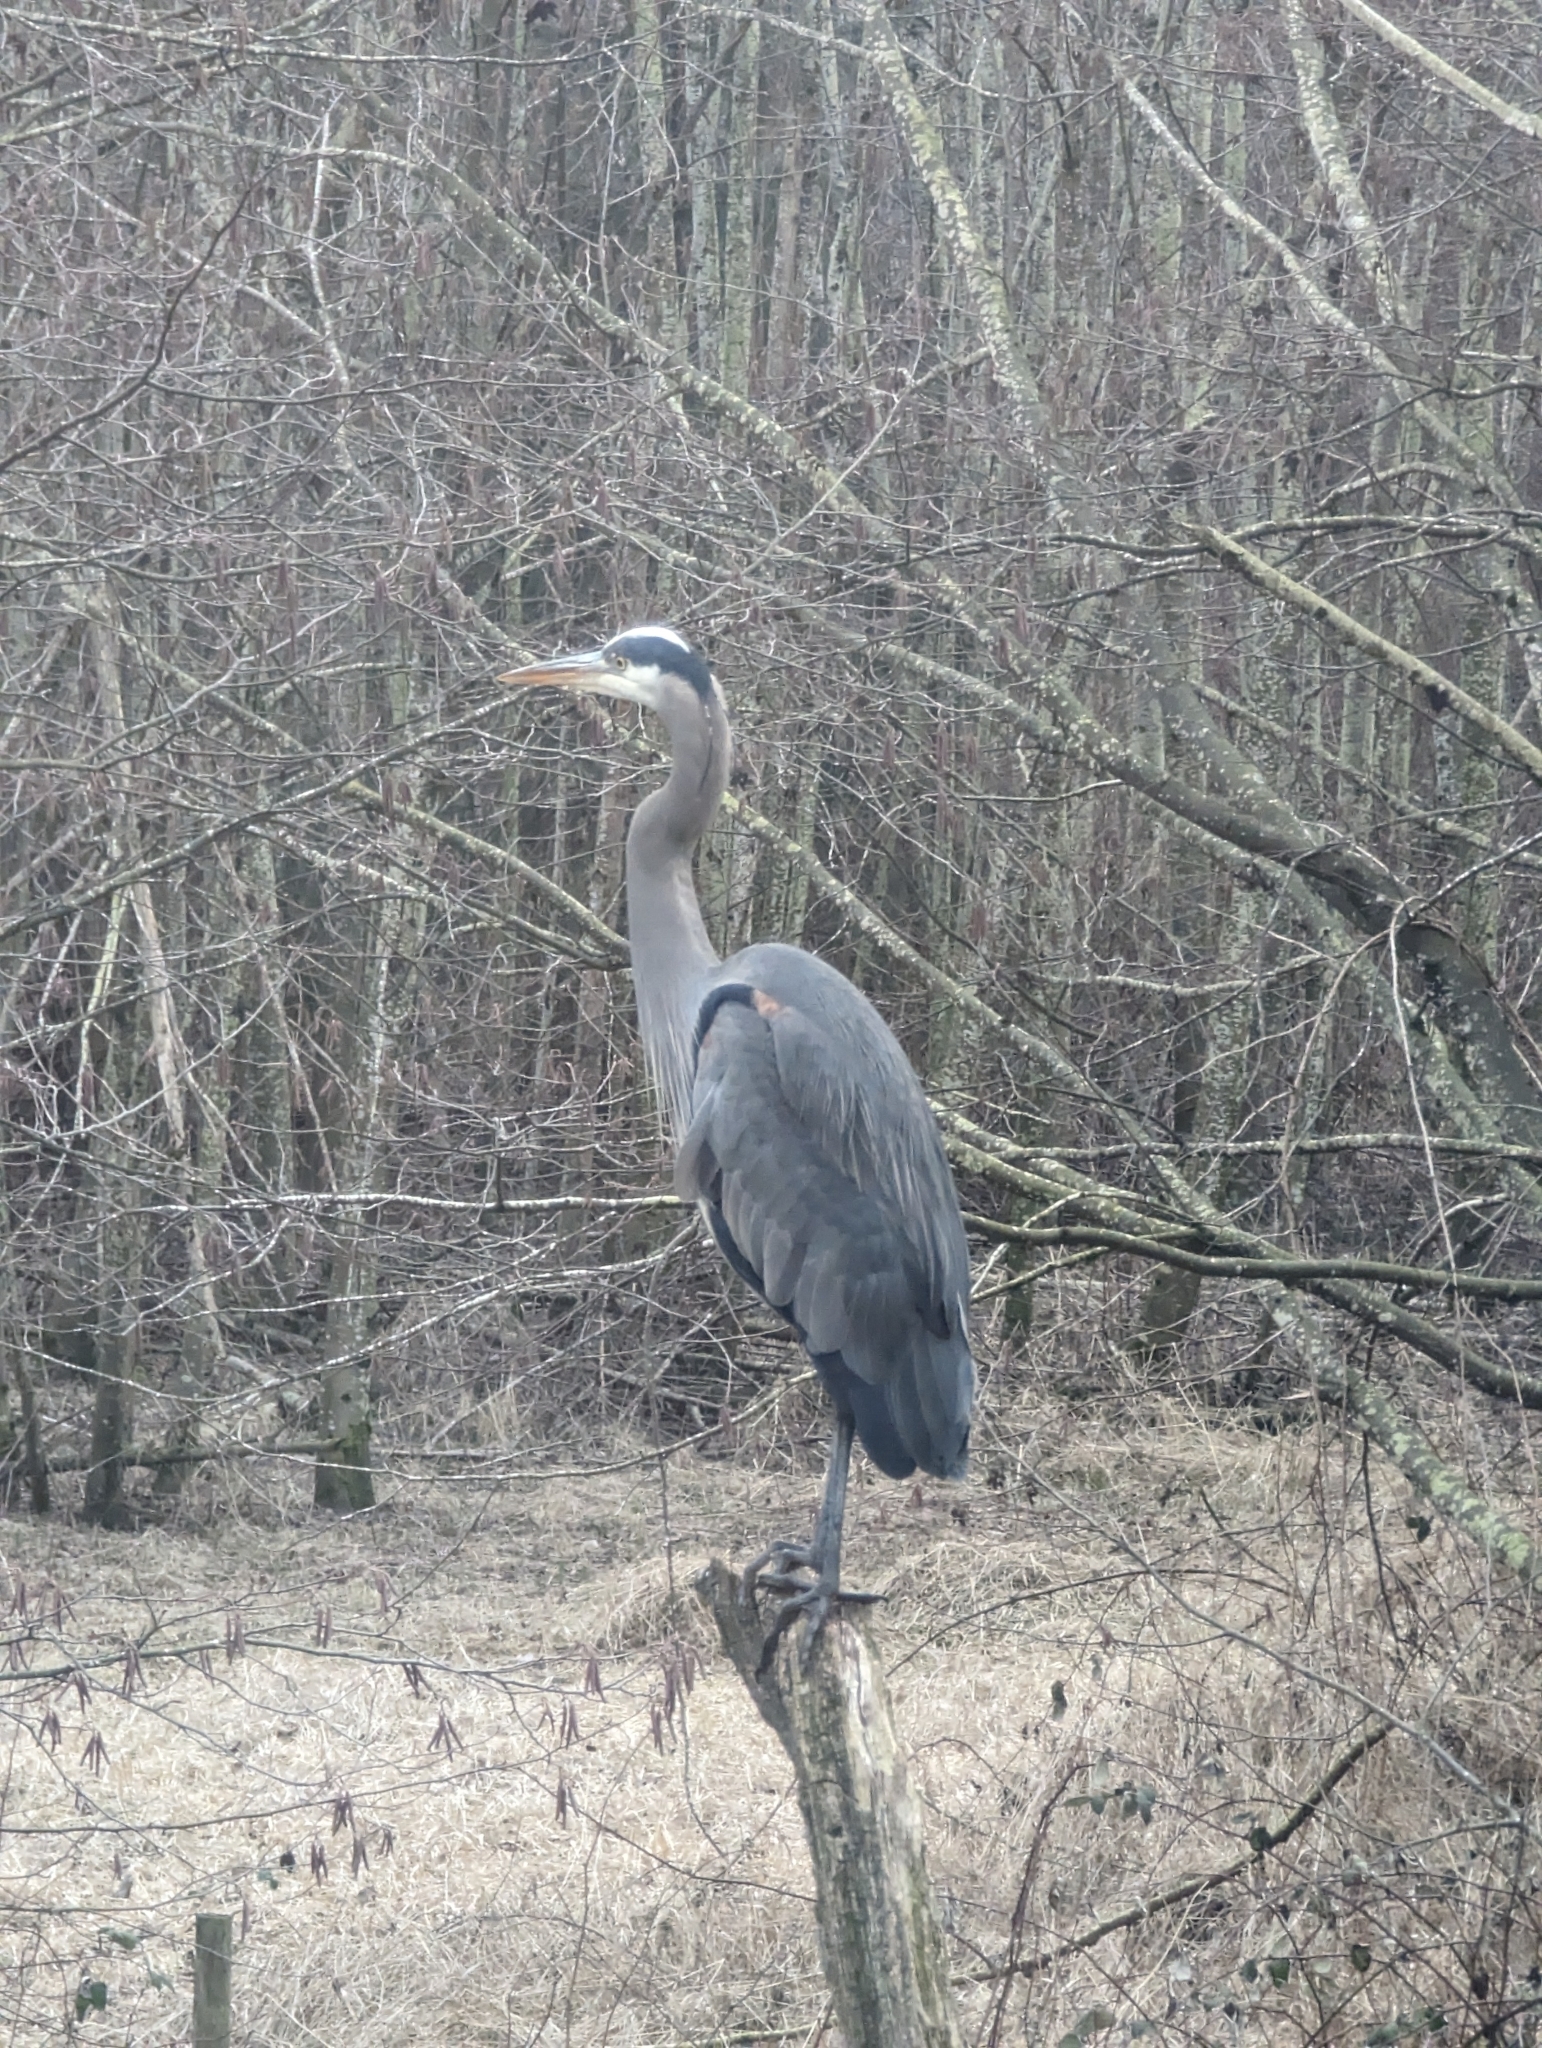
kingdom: Animalia
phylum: Chordata
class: Aves
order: Pelecaniformes
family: Ardeidae
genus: Ardea
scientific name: Ardea herodias
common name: Great blue heron
